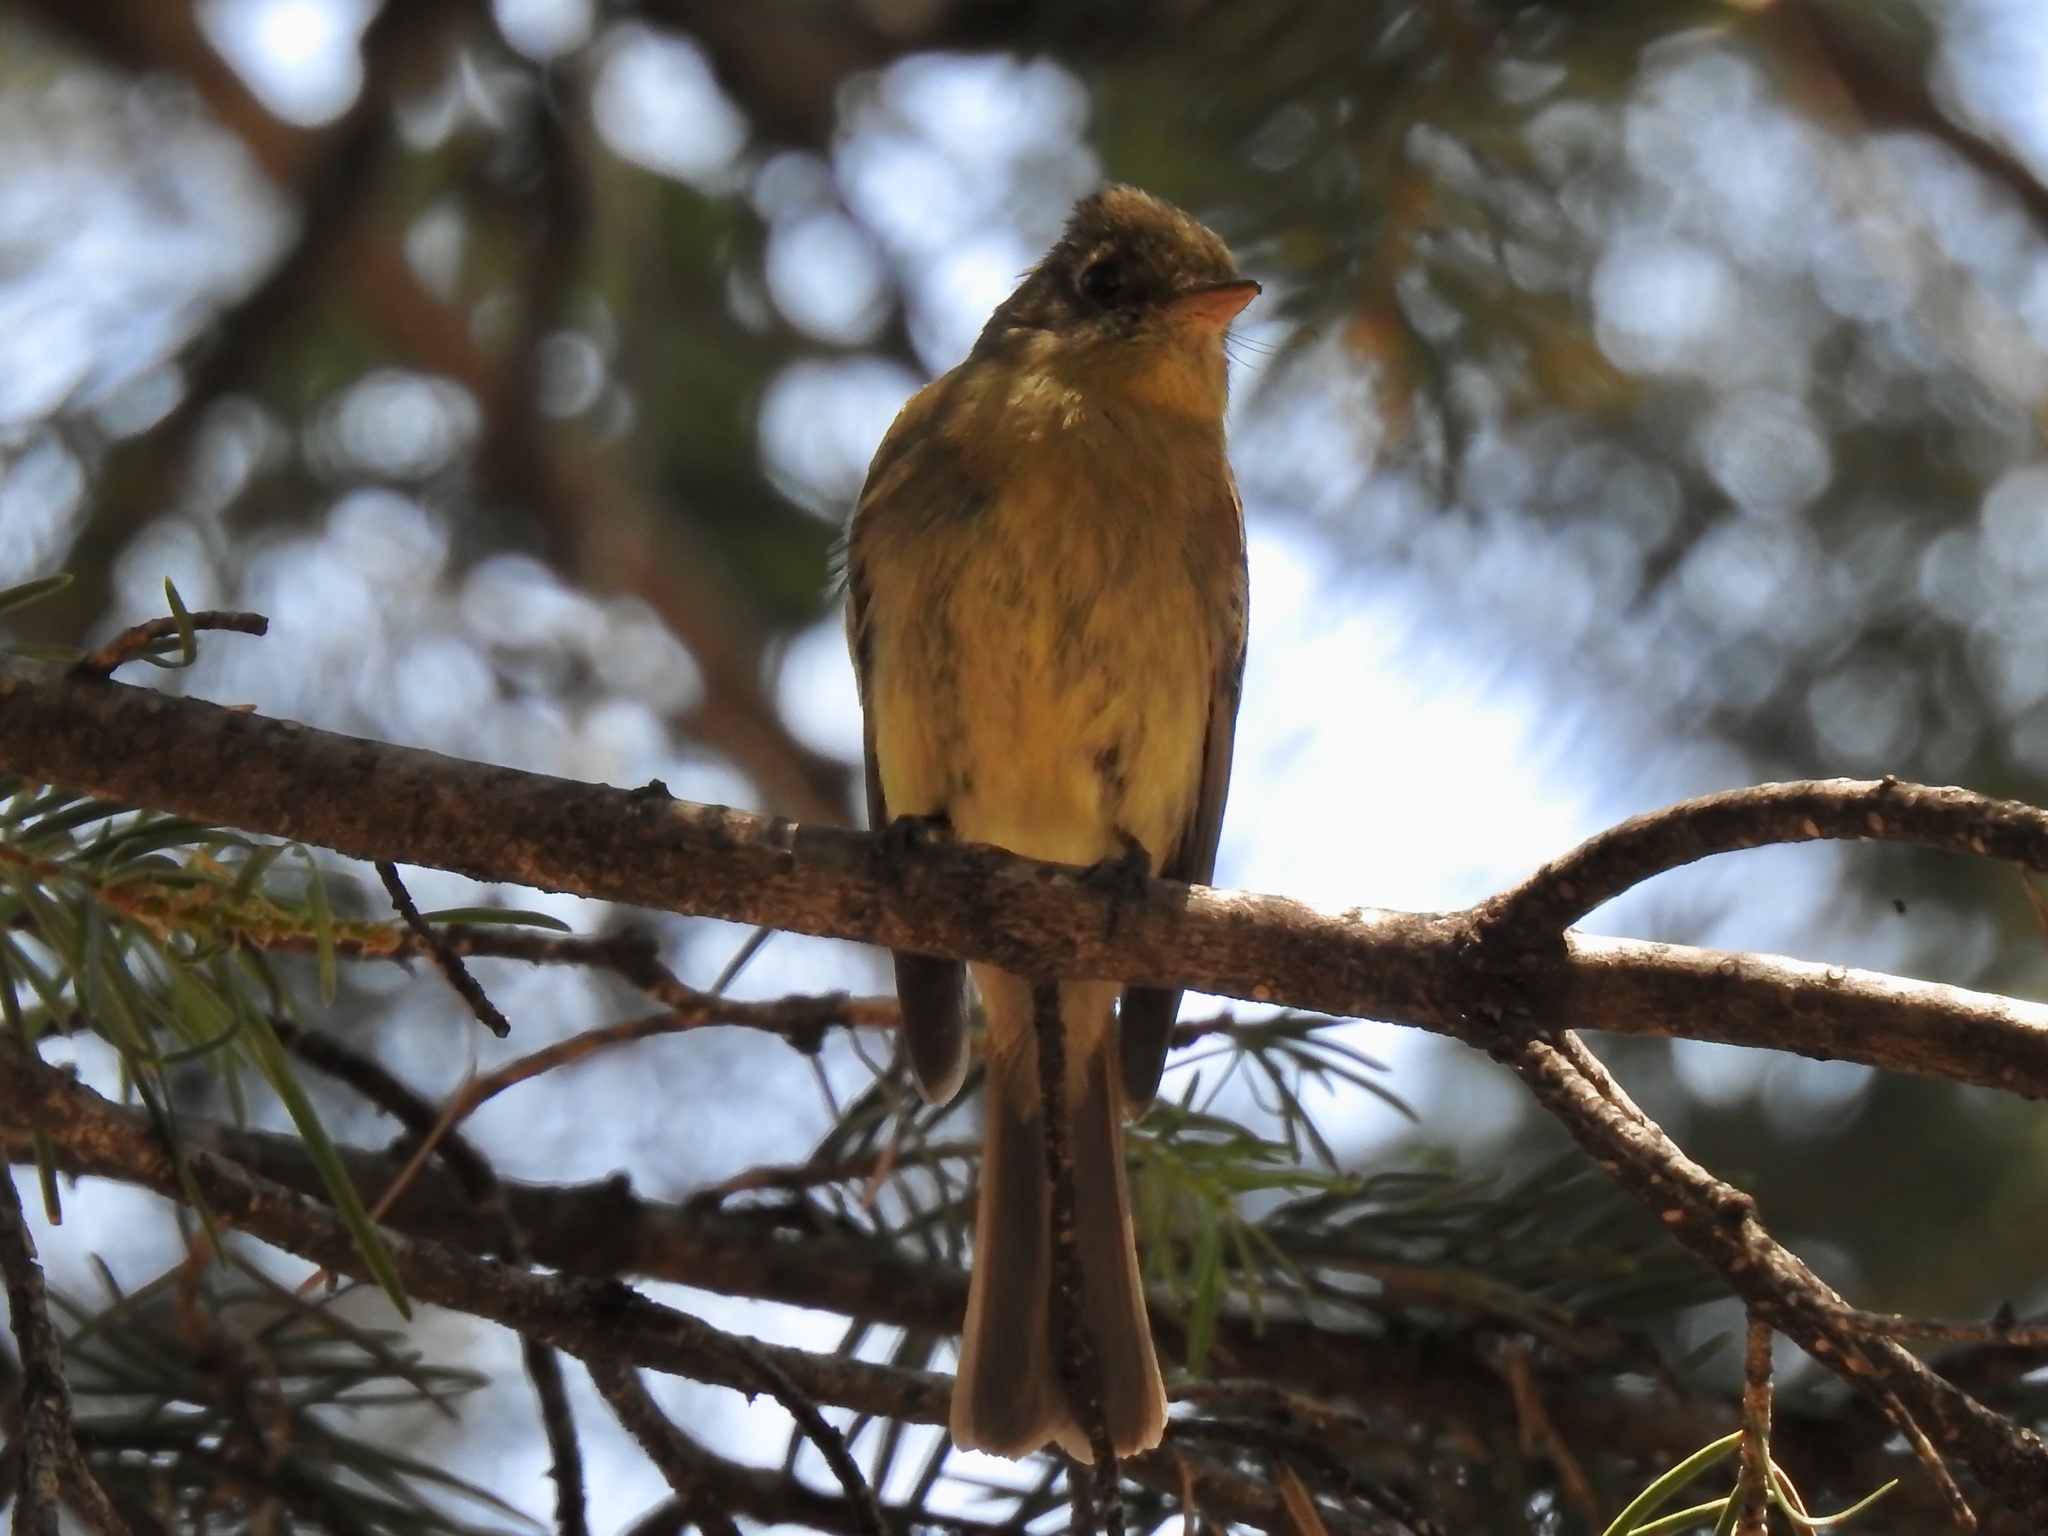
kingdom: Animalia
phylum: Chordata
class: Aves
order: Passeriformes
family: Tyrannidae
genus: Empidonax
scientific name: Empidonax difficilis
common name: Pacific-slope flycatcher
